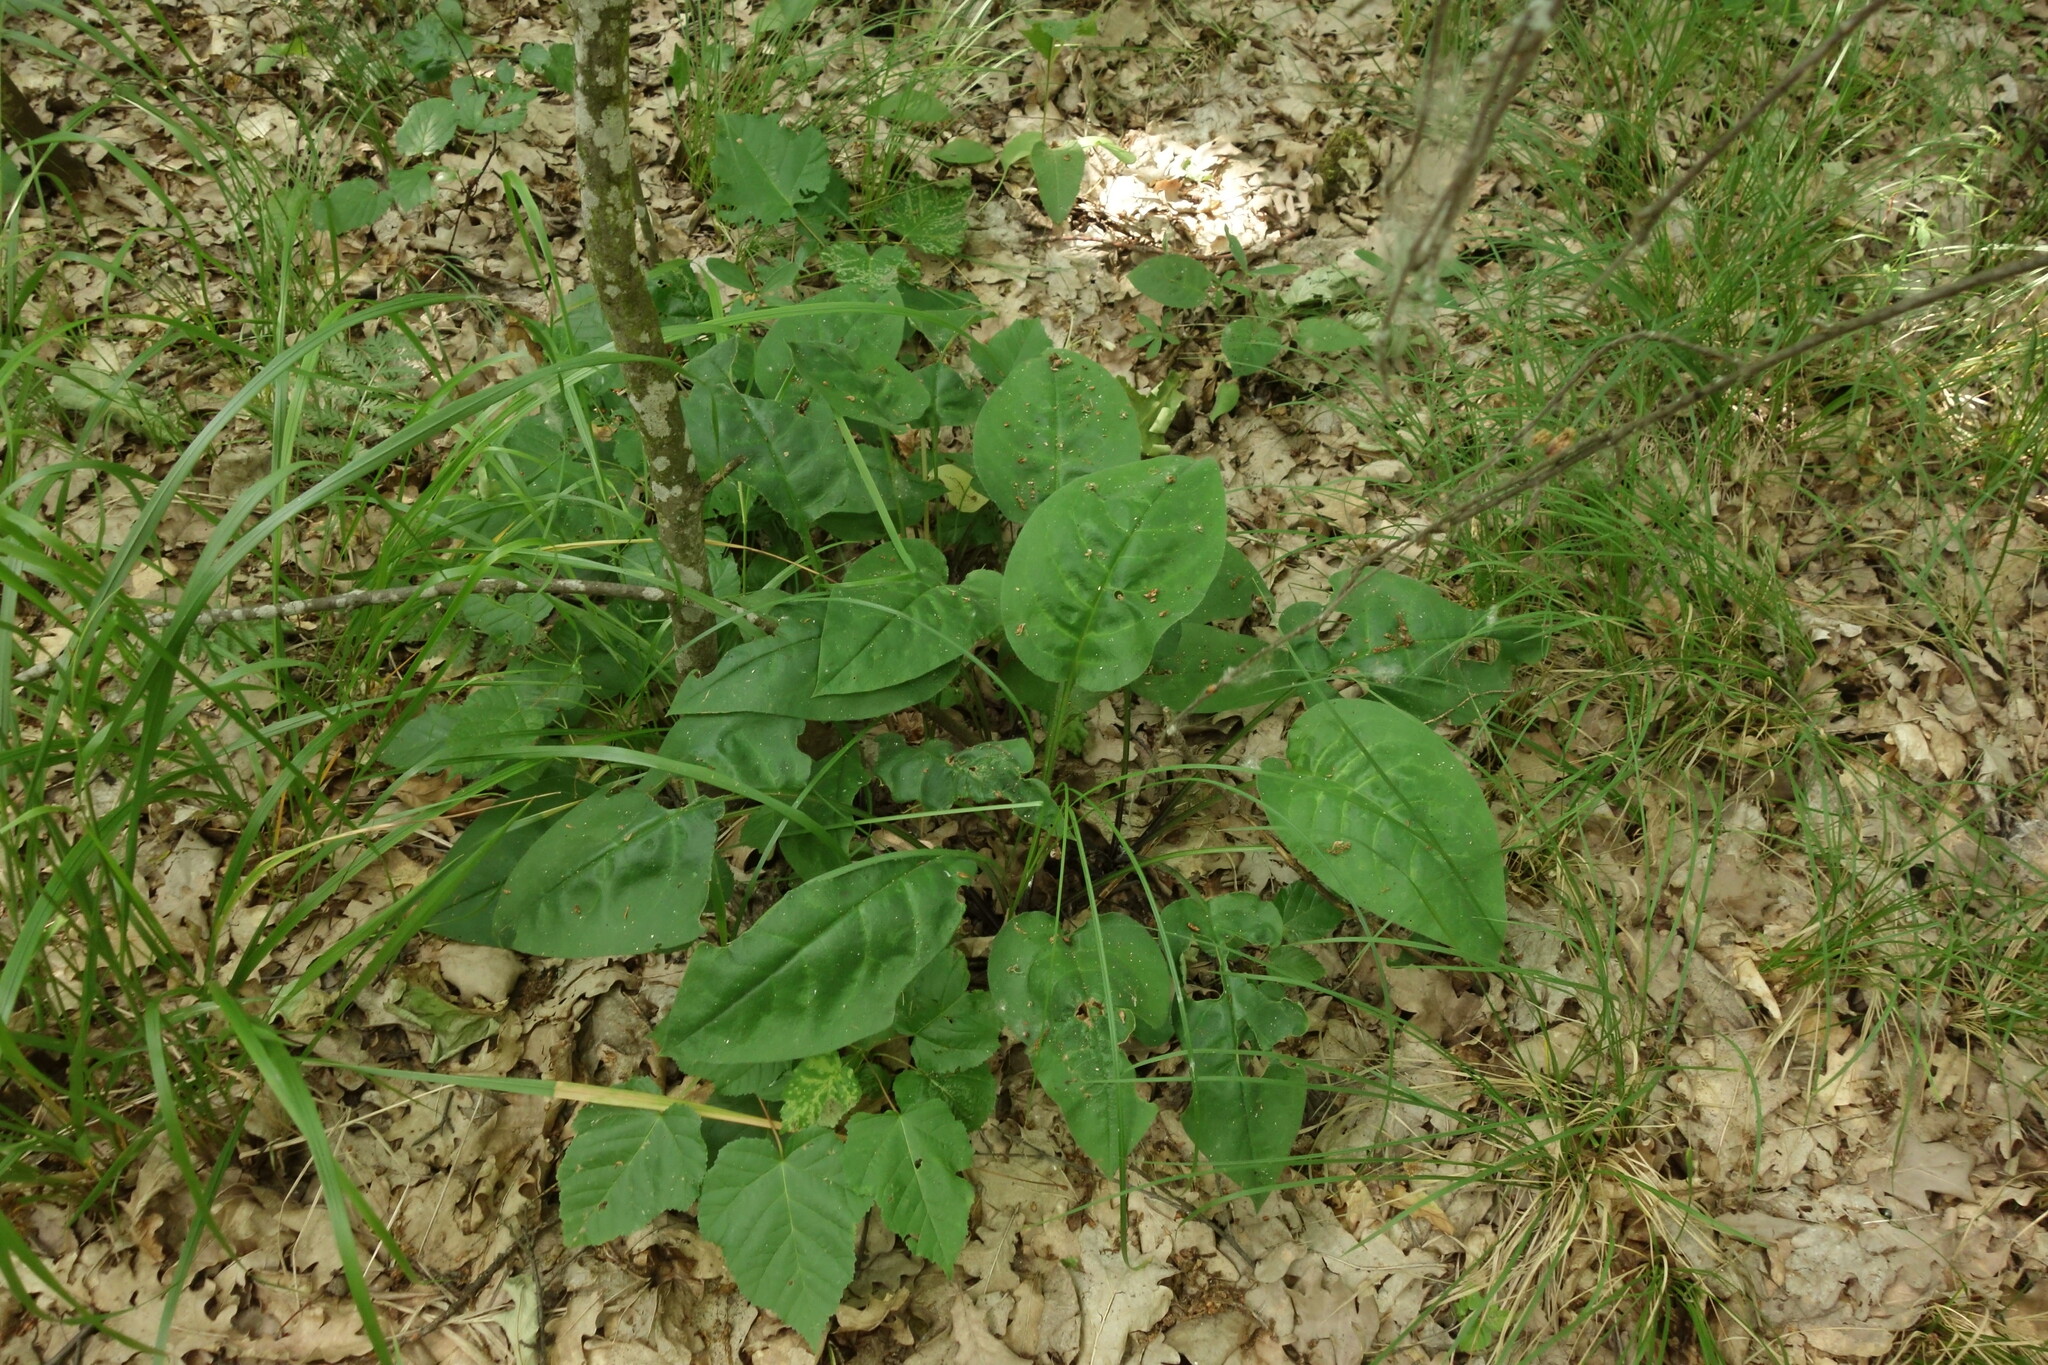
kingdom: Plantae
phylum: Tracheophyta
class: Magnoliopsida
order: Boraginales
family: Boraginaceae
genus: Pulmonaria
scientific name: Pulmonaria obscura
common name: Suffolk lungwort
